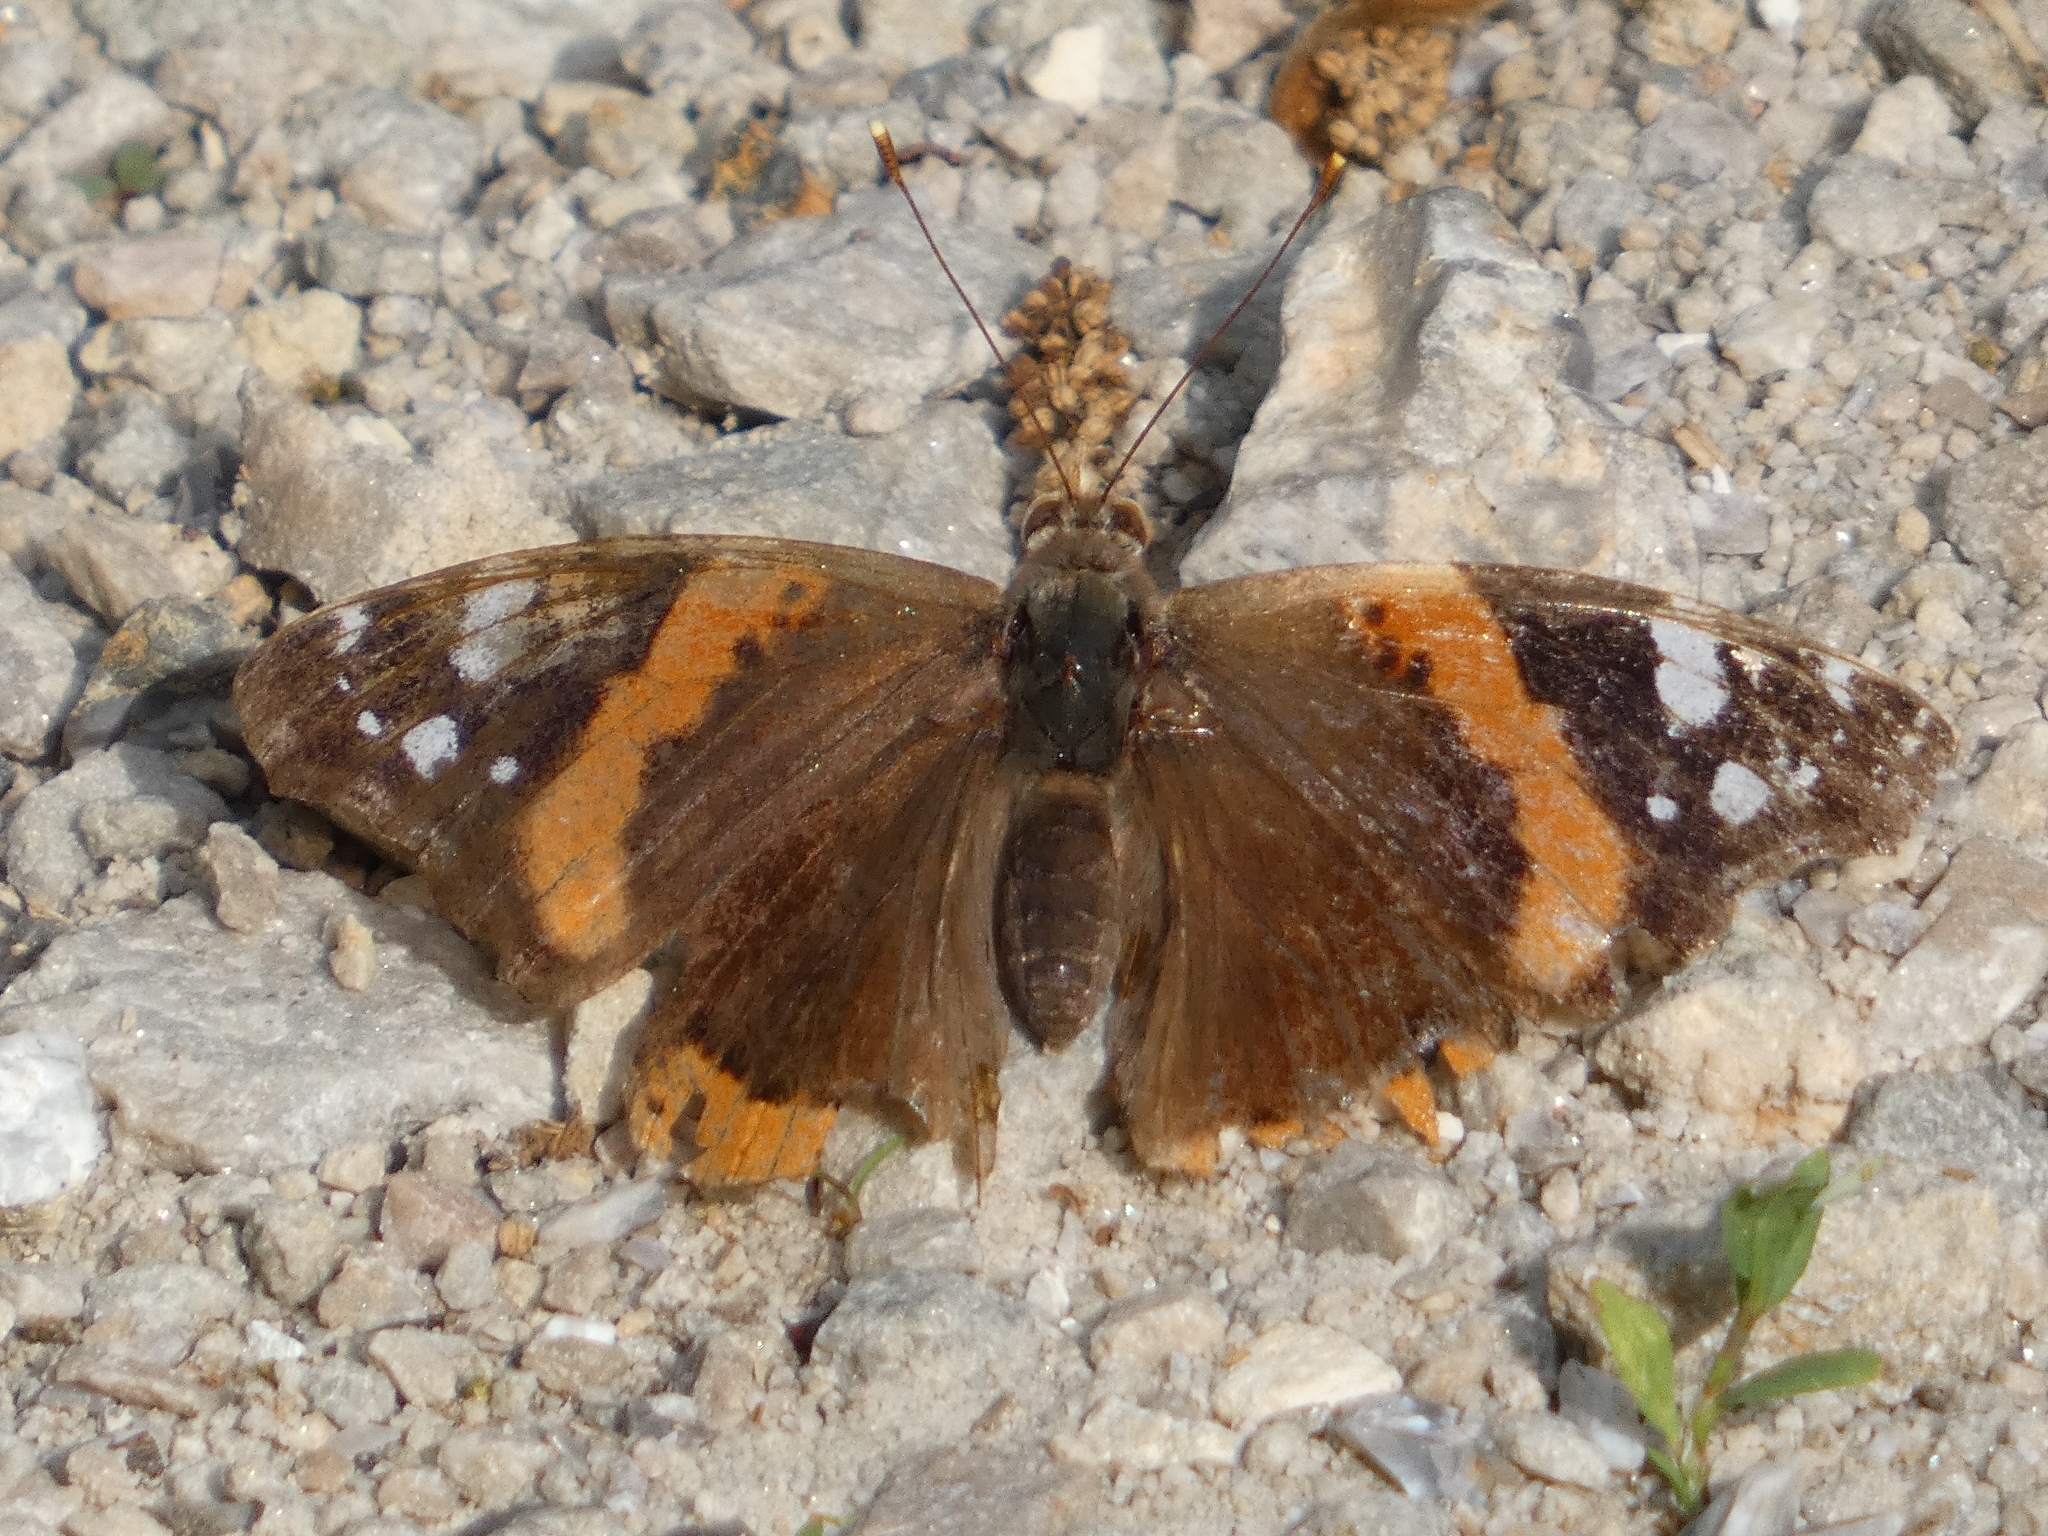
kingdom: Animalia
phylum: Arthropoda
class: Insecta
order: Lepidoptera
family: Nymphalidae
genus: Vanessa
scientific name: Vanessa atalanta
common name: Red admiral
